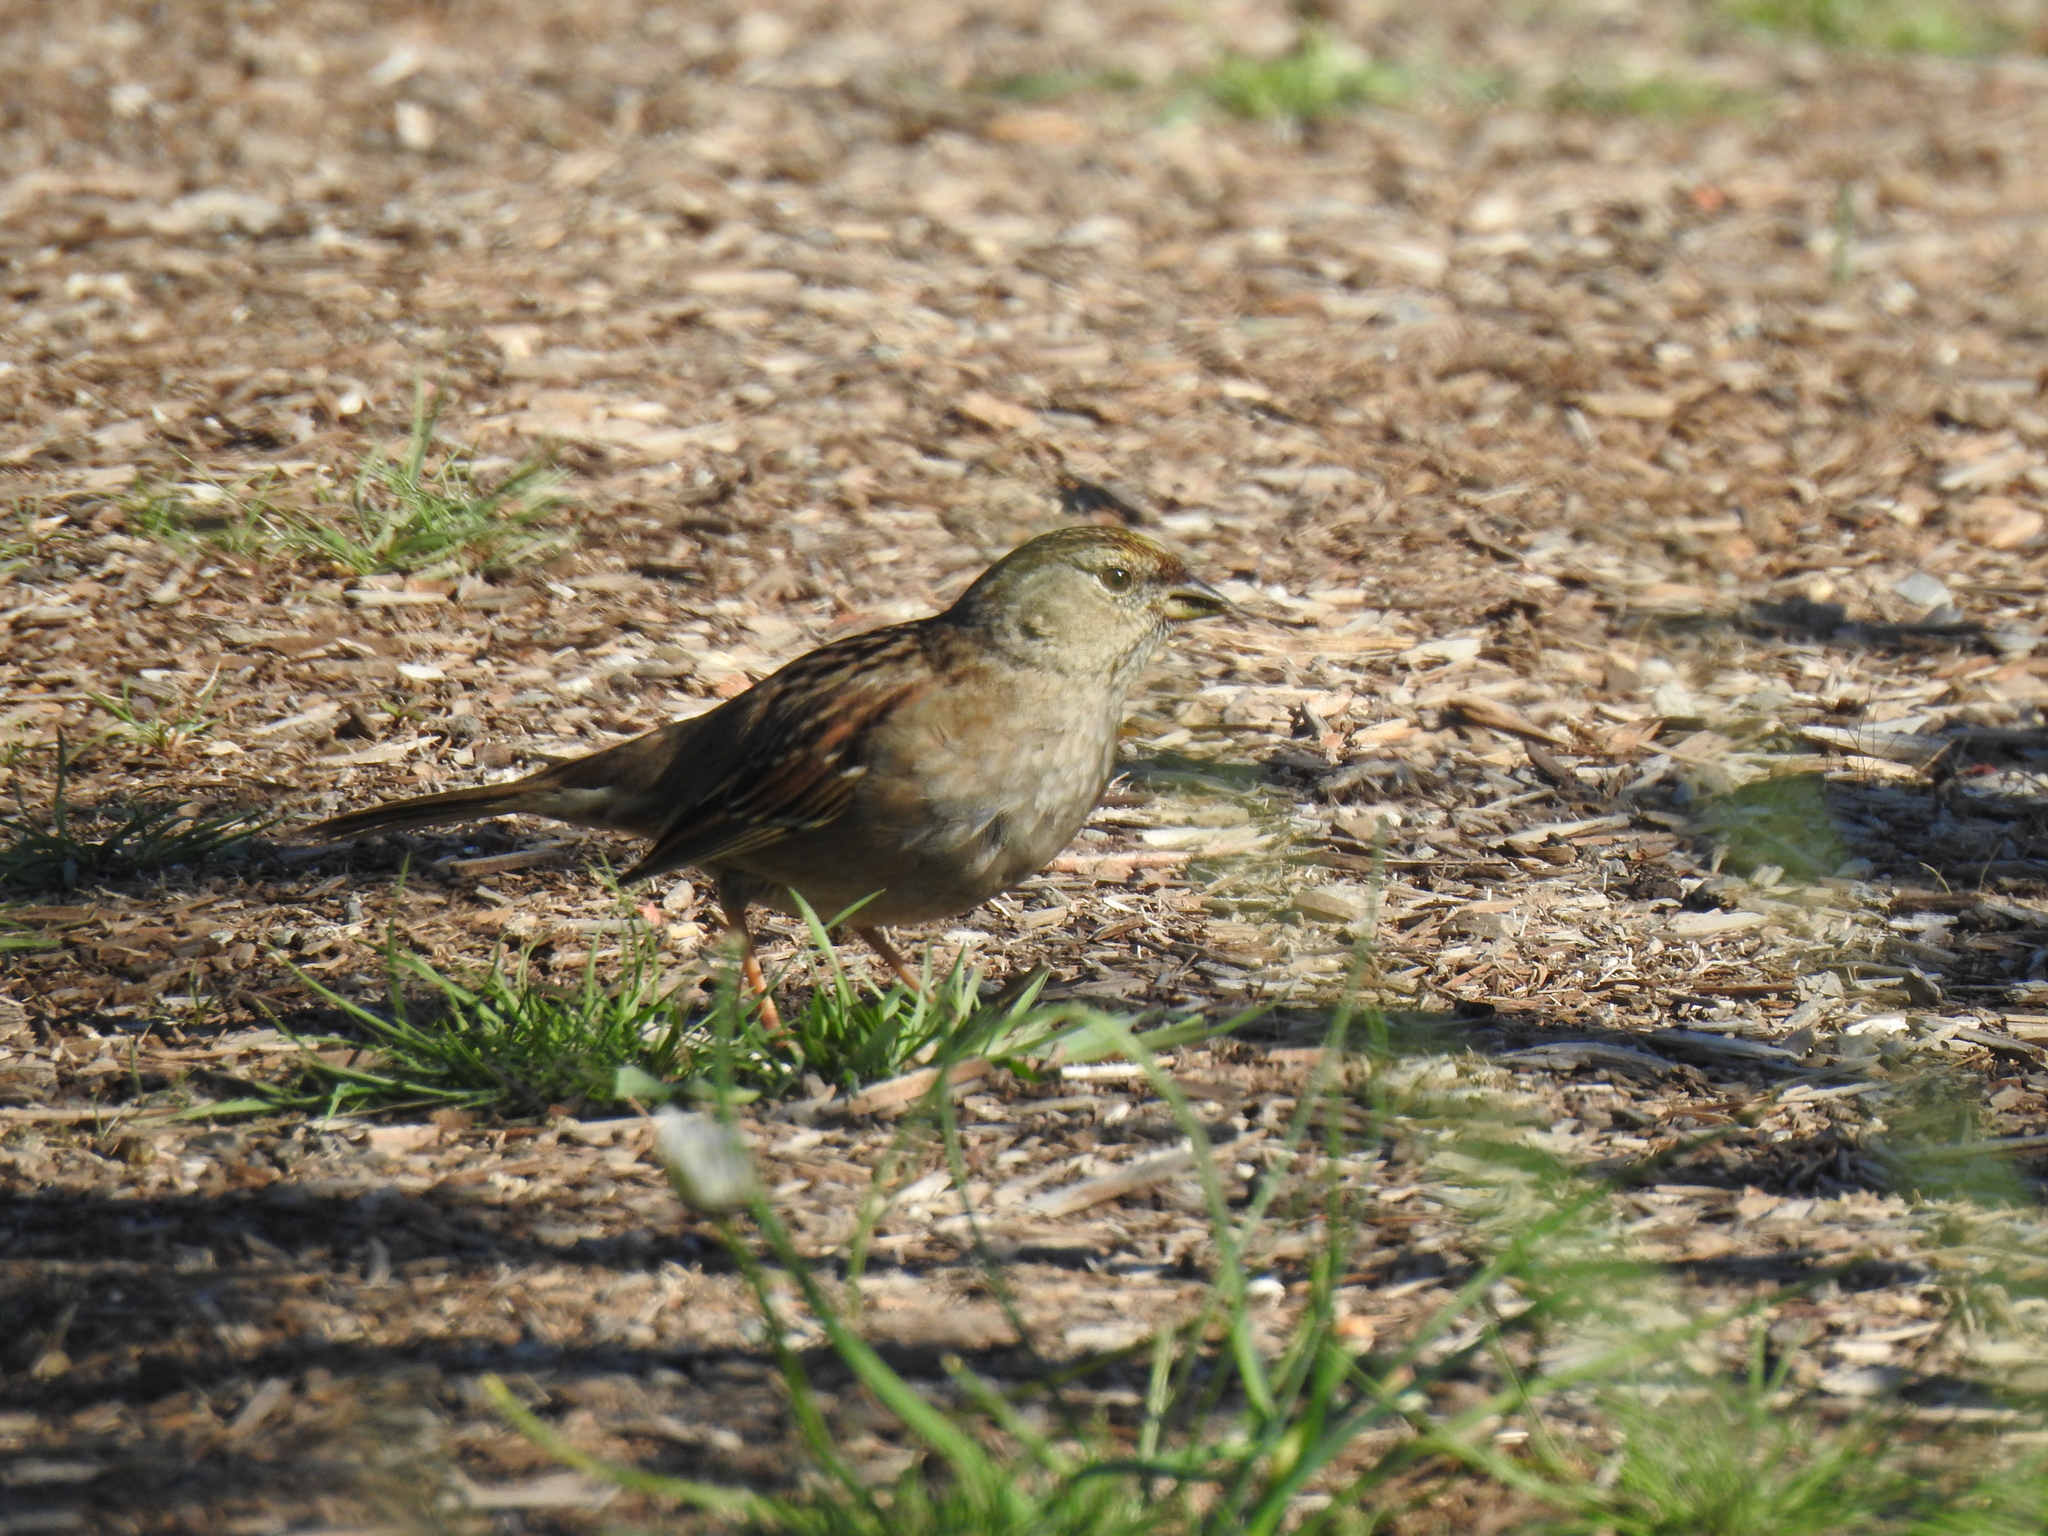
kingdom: Animalia
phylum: Chordata
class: Aves
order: Passeriformes
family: Passerellidae
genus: Zonotrichia
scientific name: Zonotrichia atricapilla
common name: Golden-crowned sparrow
